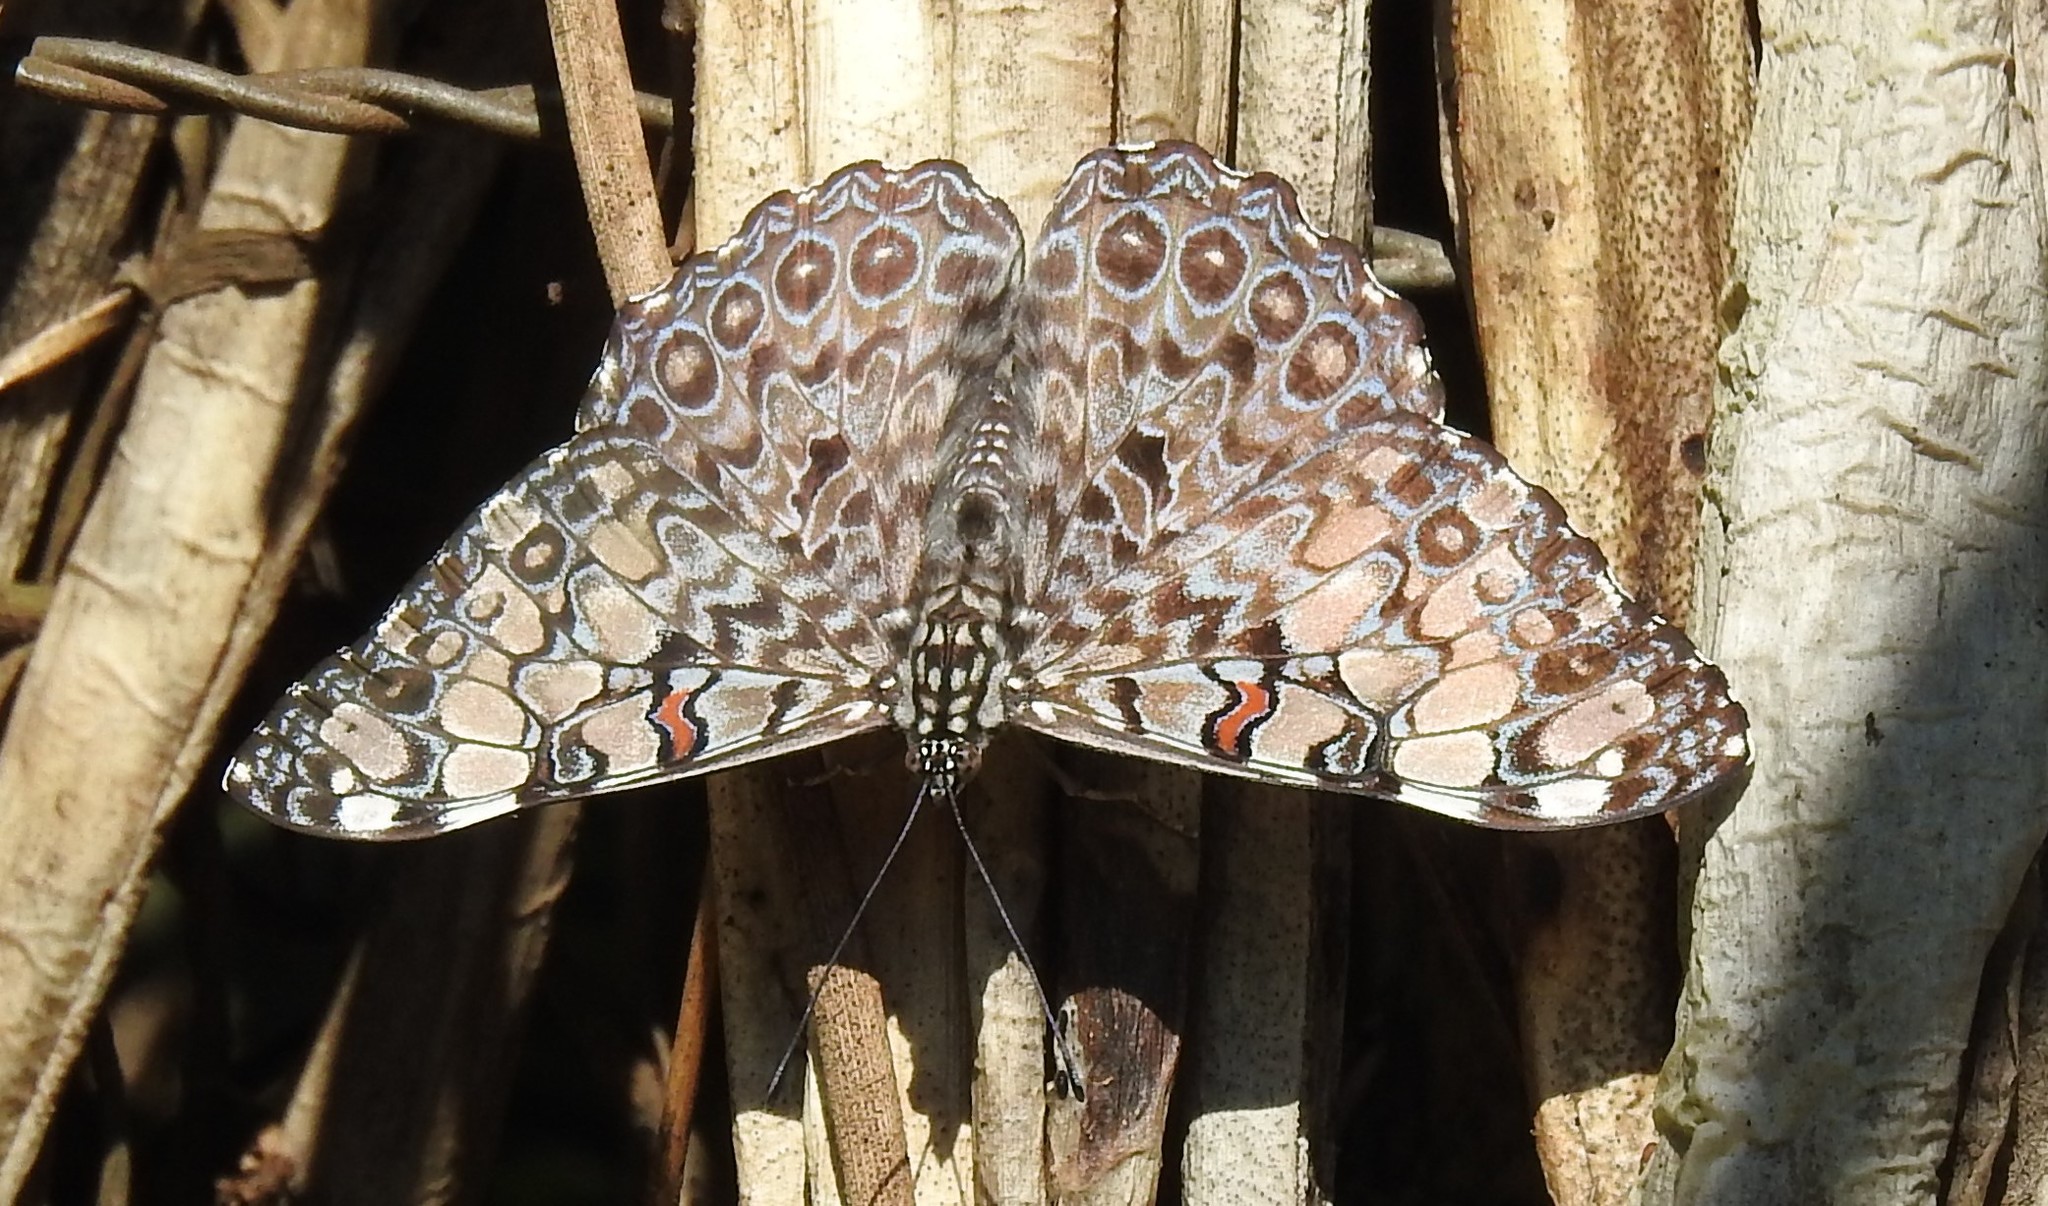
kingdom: Animalia
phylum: Arthropoda
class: Insecta
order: Lepidoptera
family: Nymphalidae
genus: Hamadryas
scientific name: Hamadryas feronia
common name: Variable cracker
